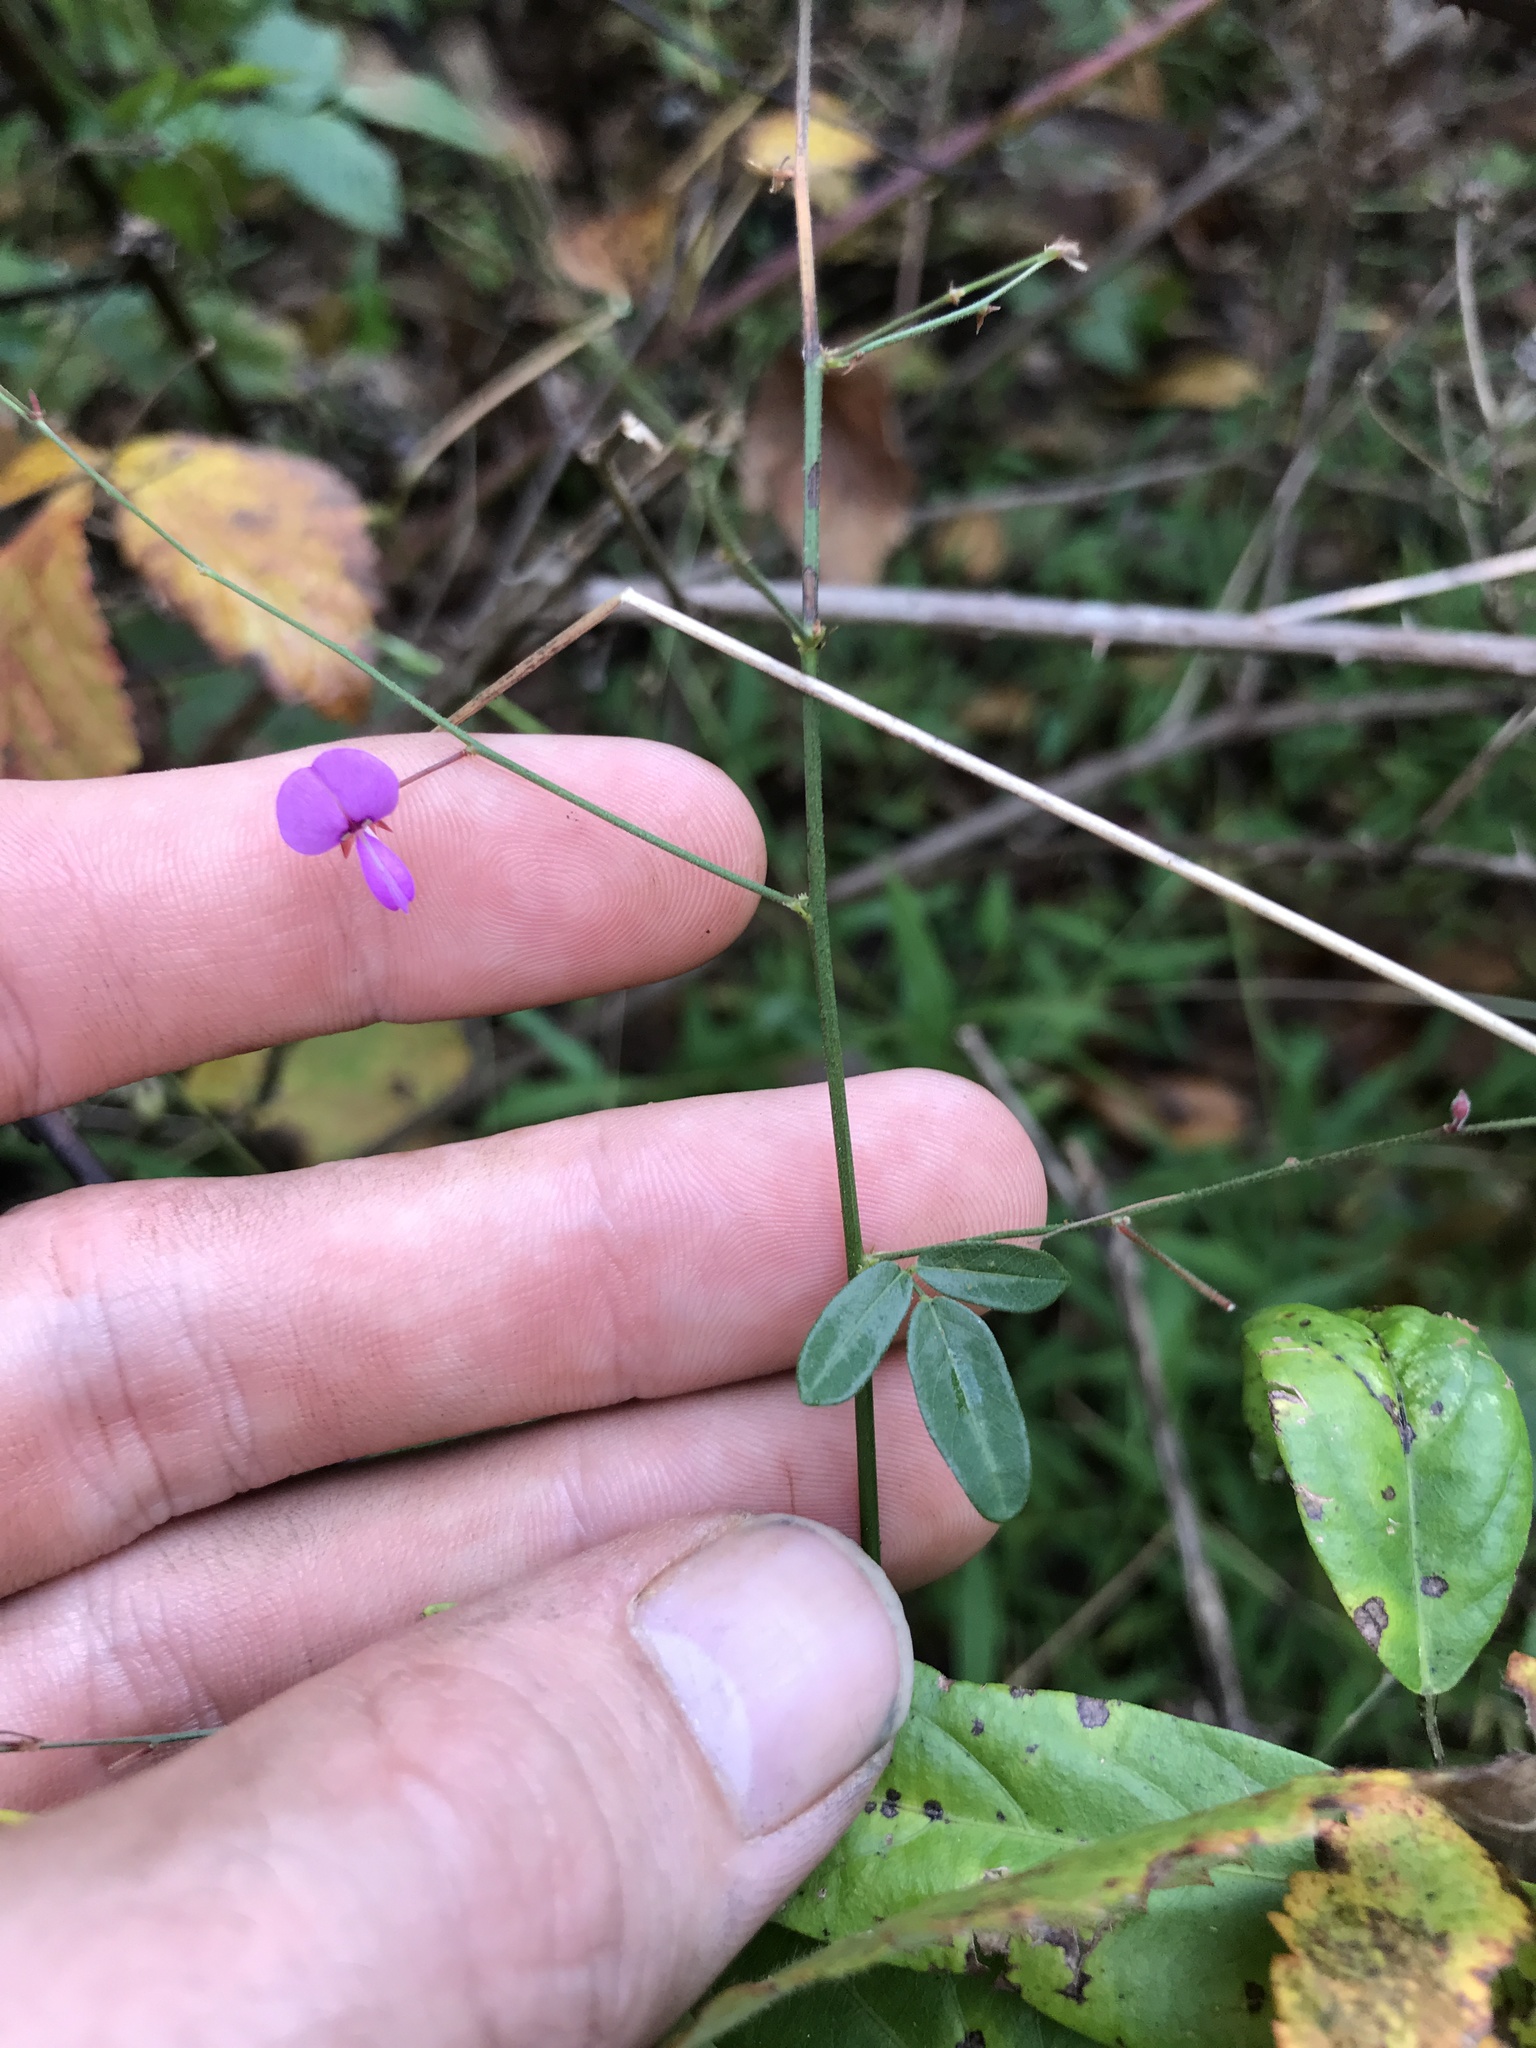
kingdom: Plantae
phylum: Tracheophyta
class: Magnoliopsida
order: Fabales
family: Fabaceae
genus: Desmodium
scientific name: Desmodium paniculatum
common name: Panicled tick-clover
